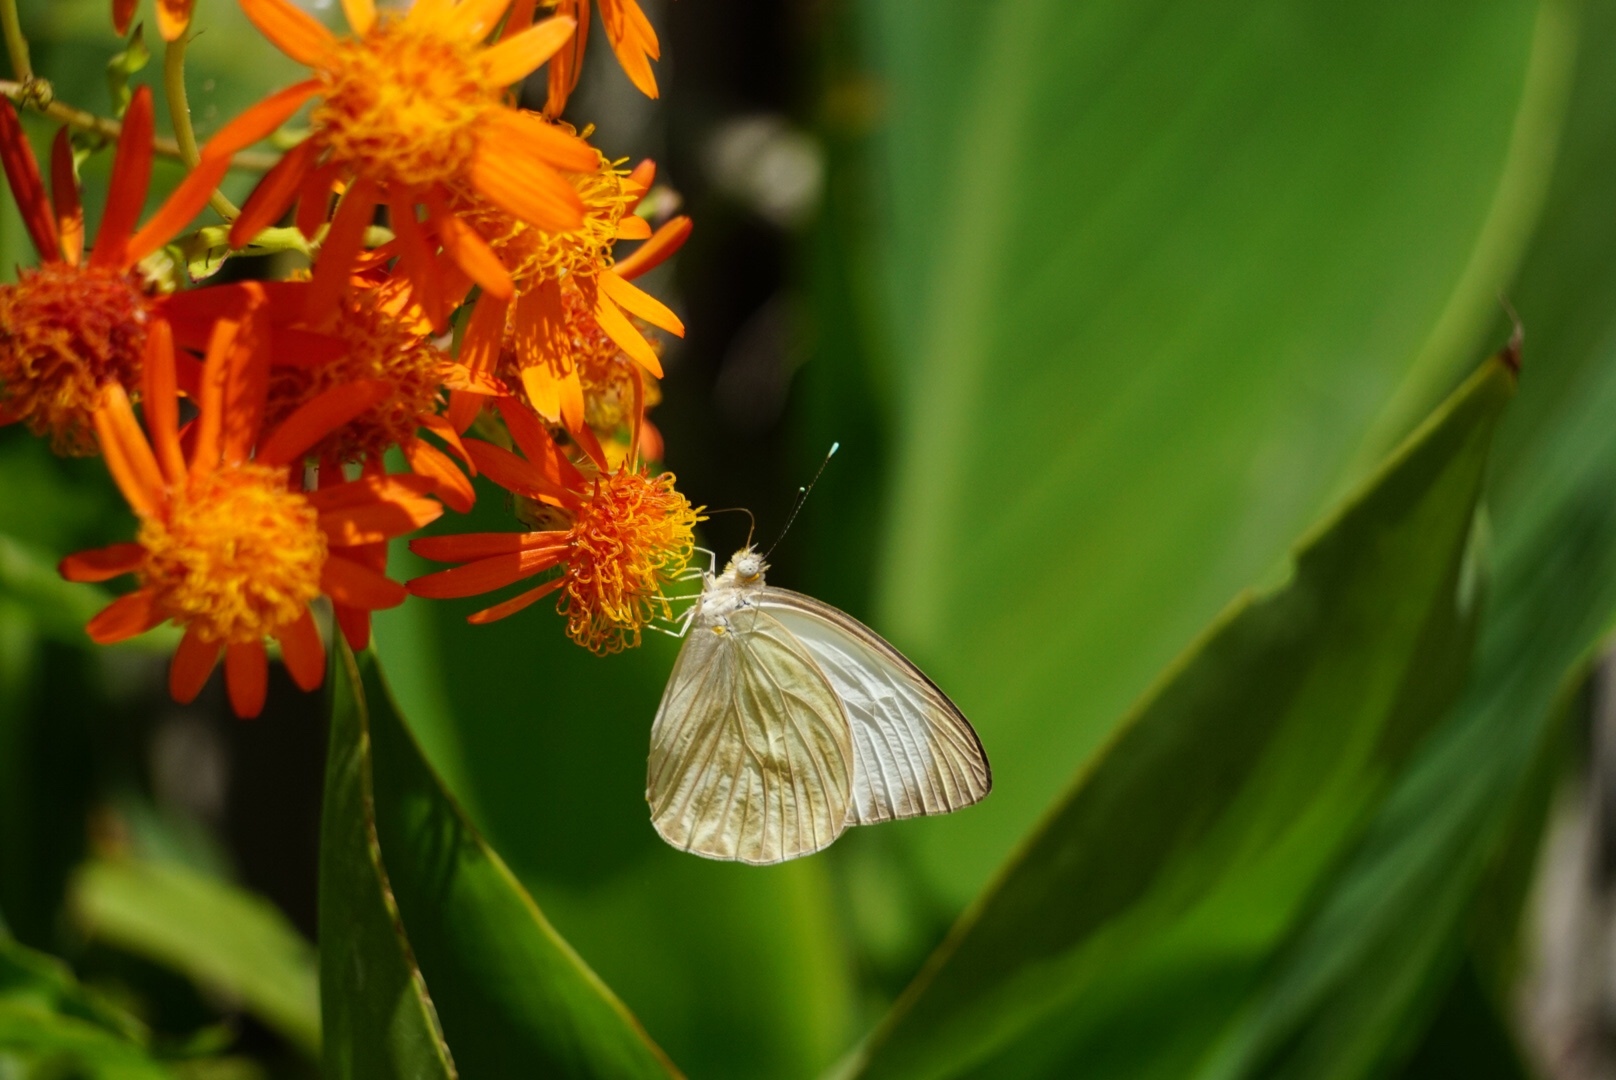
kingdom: Animalia
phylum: Arthropoda
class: Insecta
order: Lepidoptera
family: Pieridae
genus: Ascia
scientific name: Ascia monuste
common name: Great southern white
